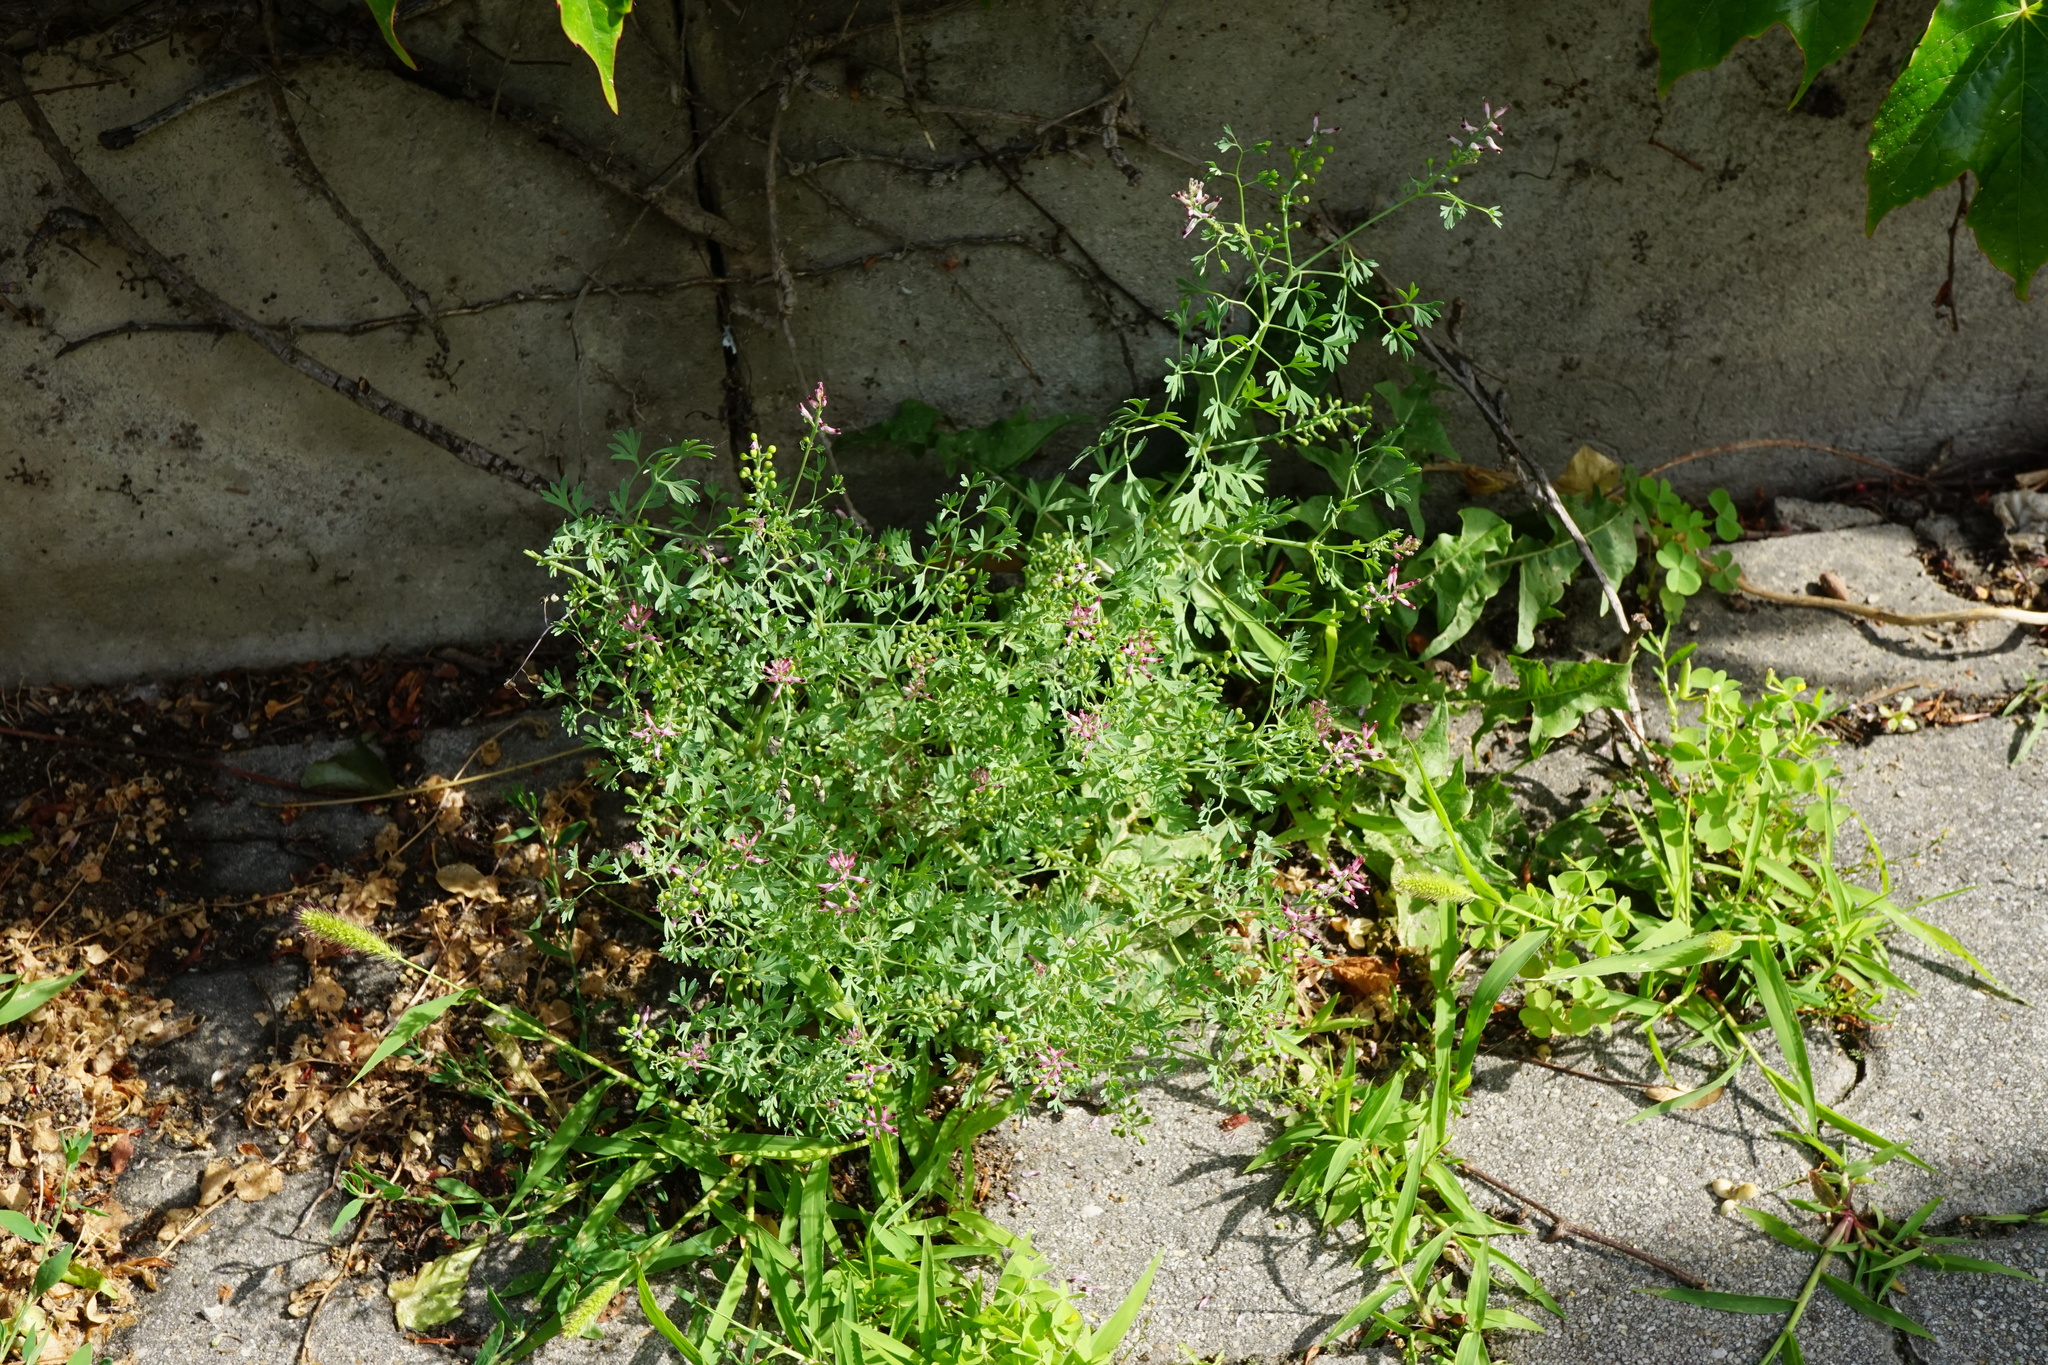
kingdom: Plantae
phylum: Tracheophyta
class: Magnoliopsida
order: Ranunculales
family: Papaveraceae
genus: Fumaria
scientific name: Fumaria schleicheri
